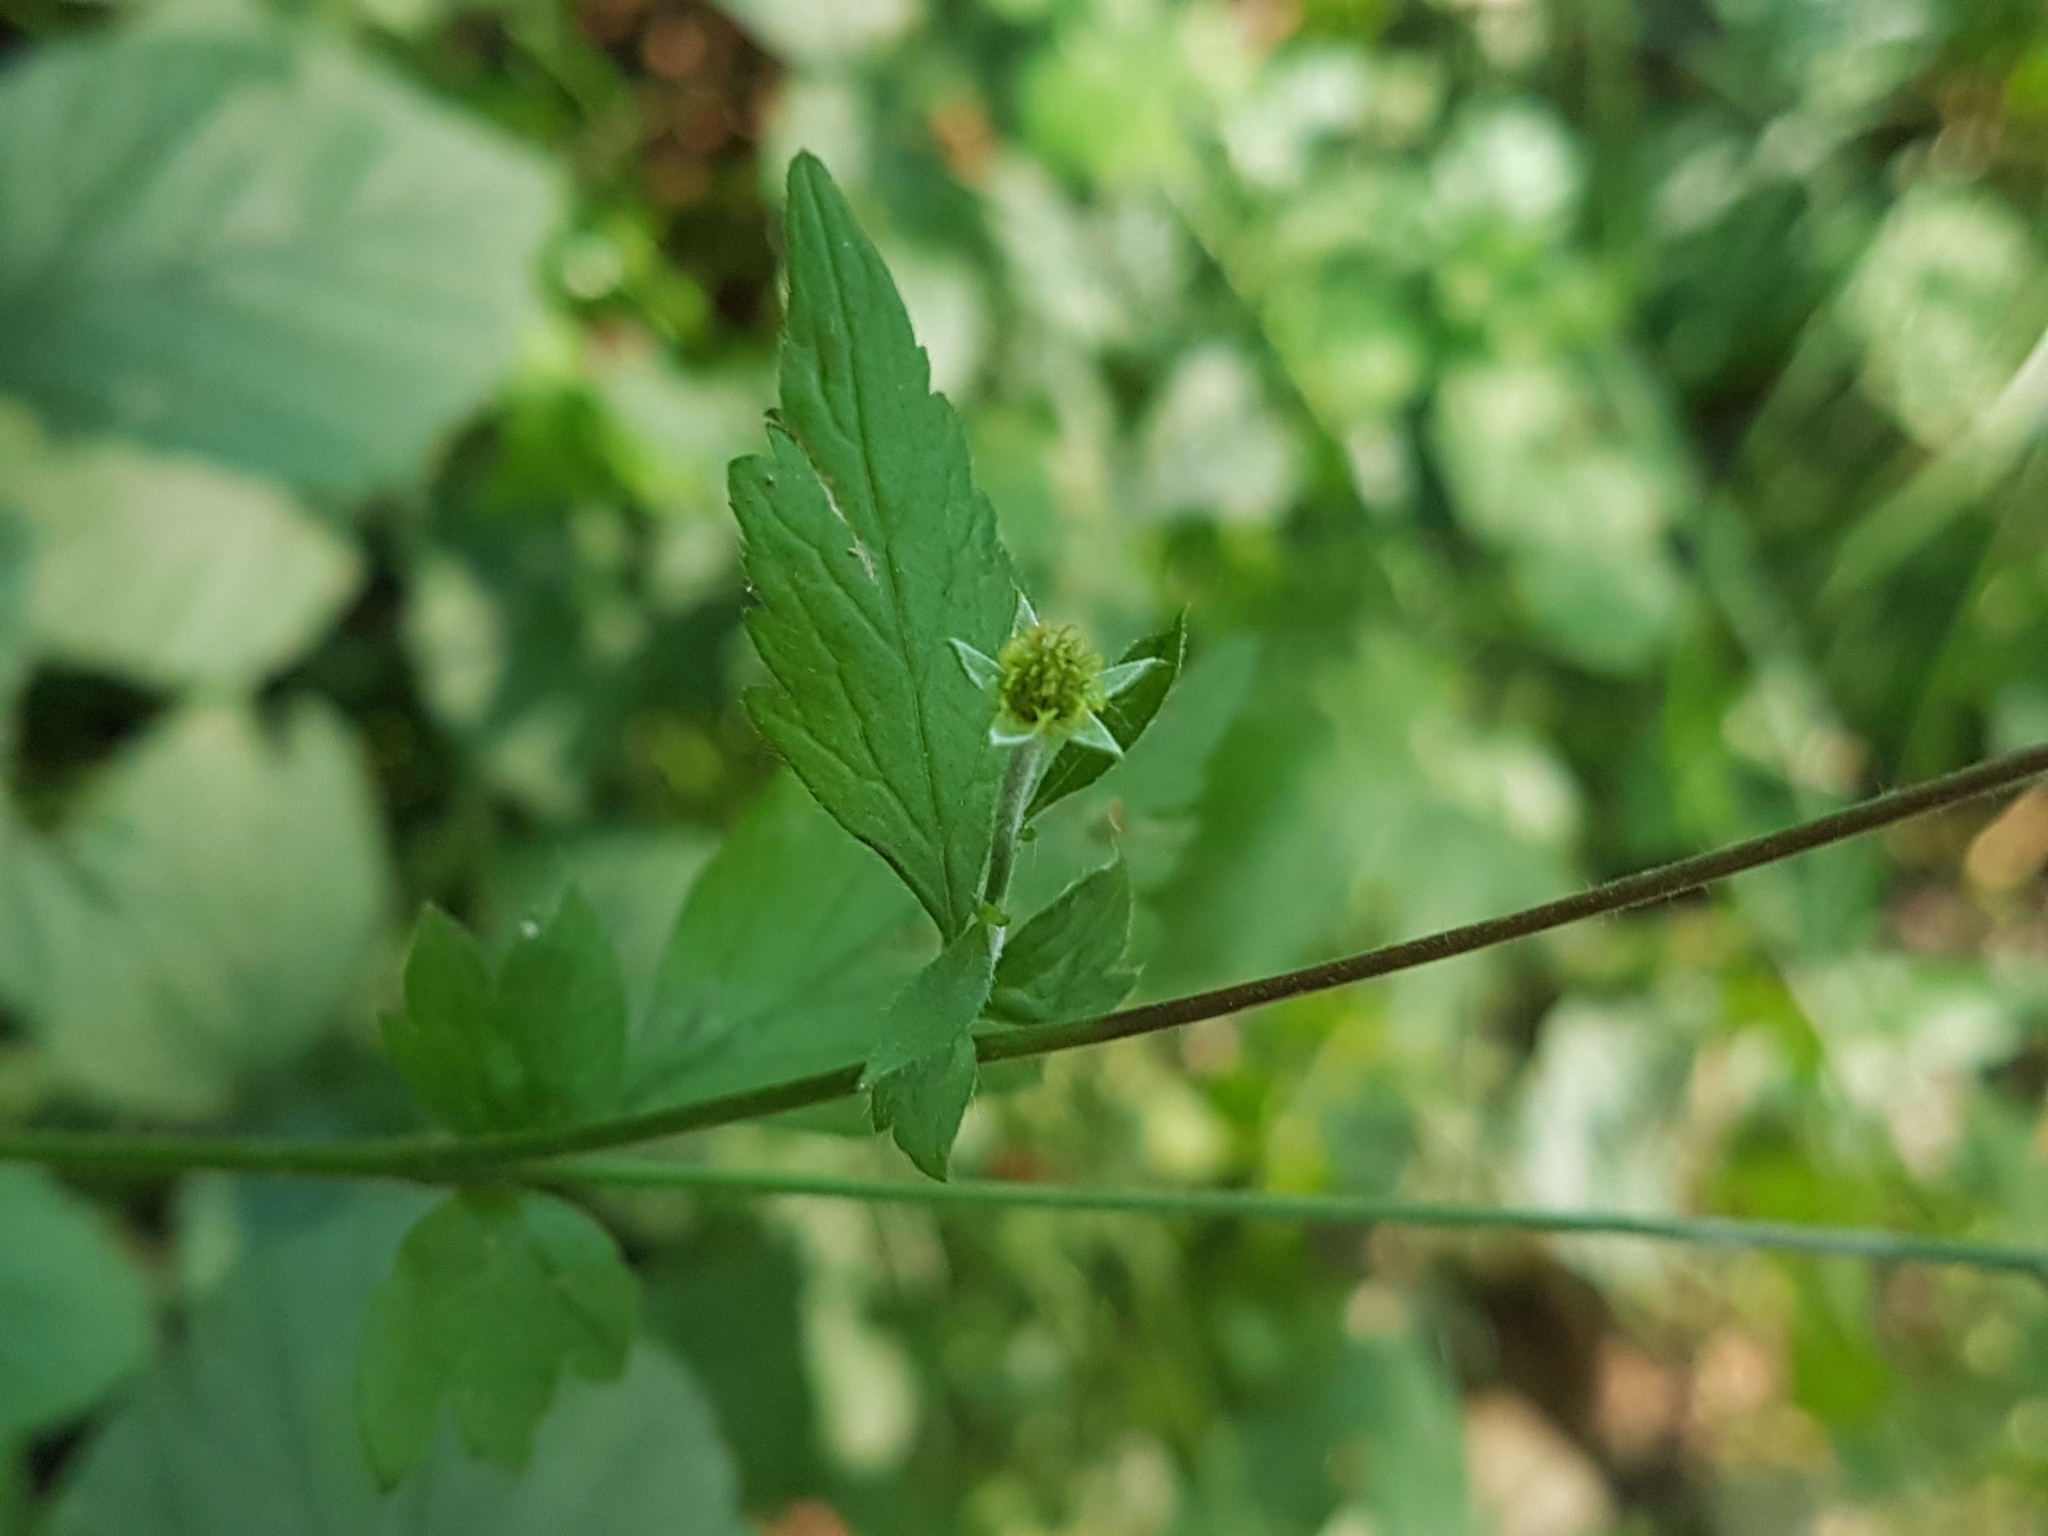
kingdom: Plantae
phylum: Tracheophyta
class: Magnoliopsida
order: Rosales
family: Rosaceae
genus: Geum
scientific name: Geum urbanum
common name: Wood avens
